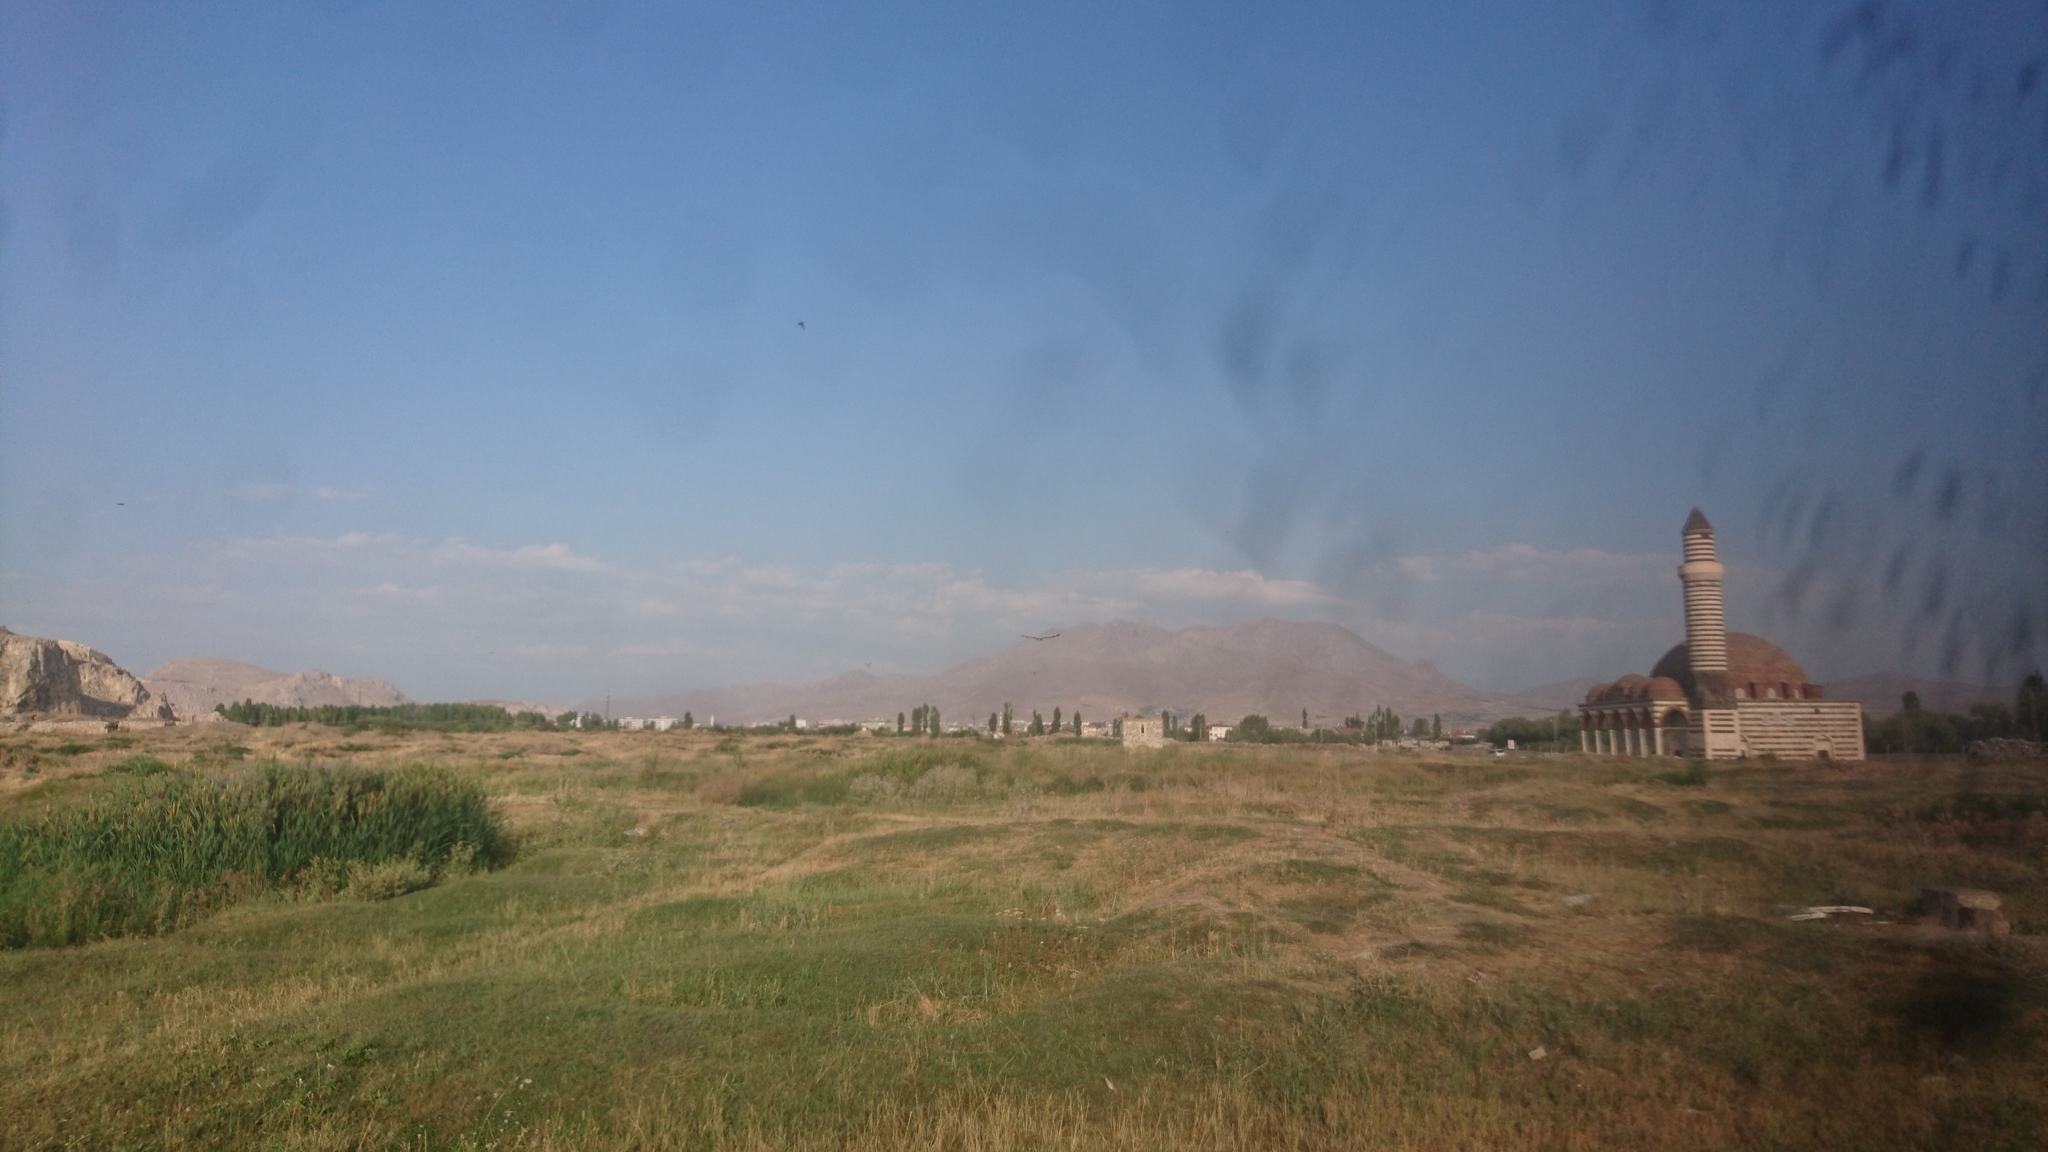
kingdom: Animalia
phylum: Chordata
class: Aves
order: Ciconiiformes
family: Ciconiidae
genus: Ciconia
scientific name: Ciconia ciconia
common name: White stork
